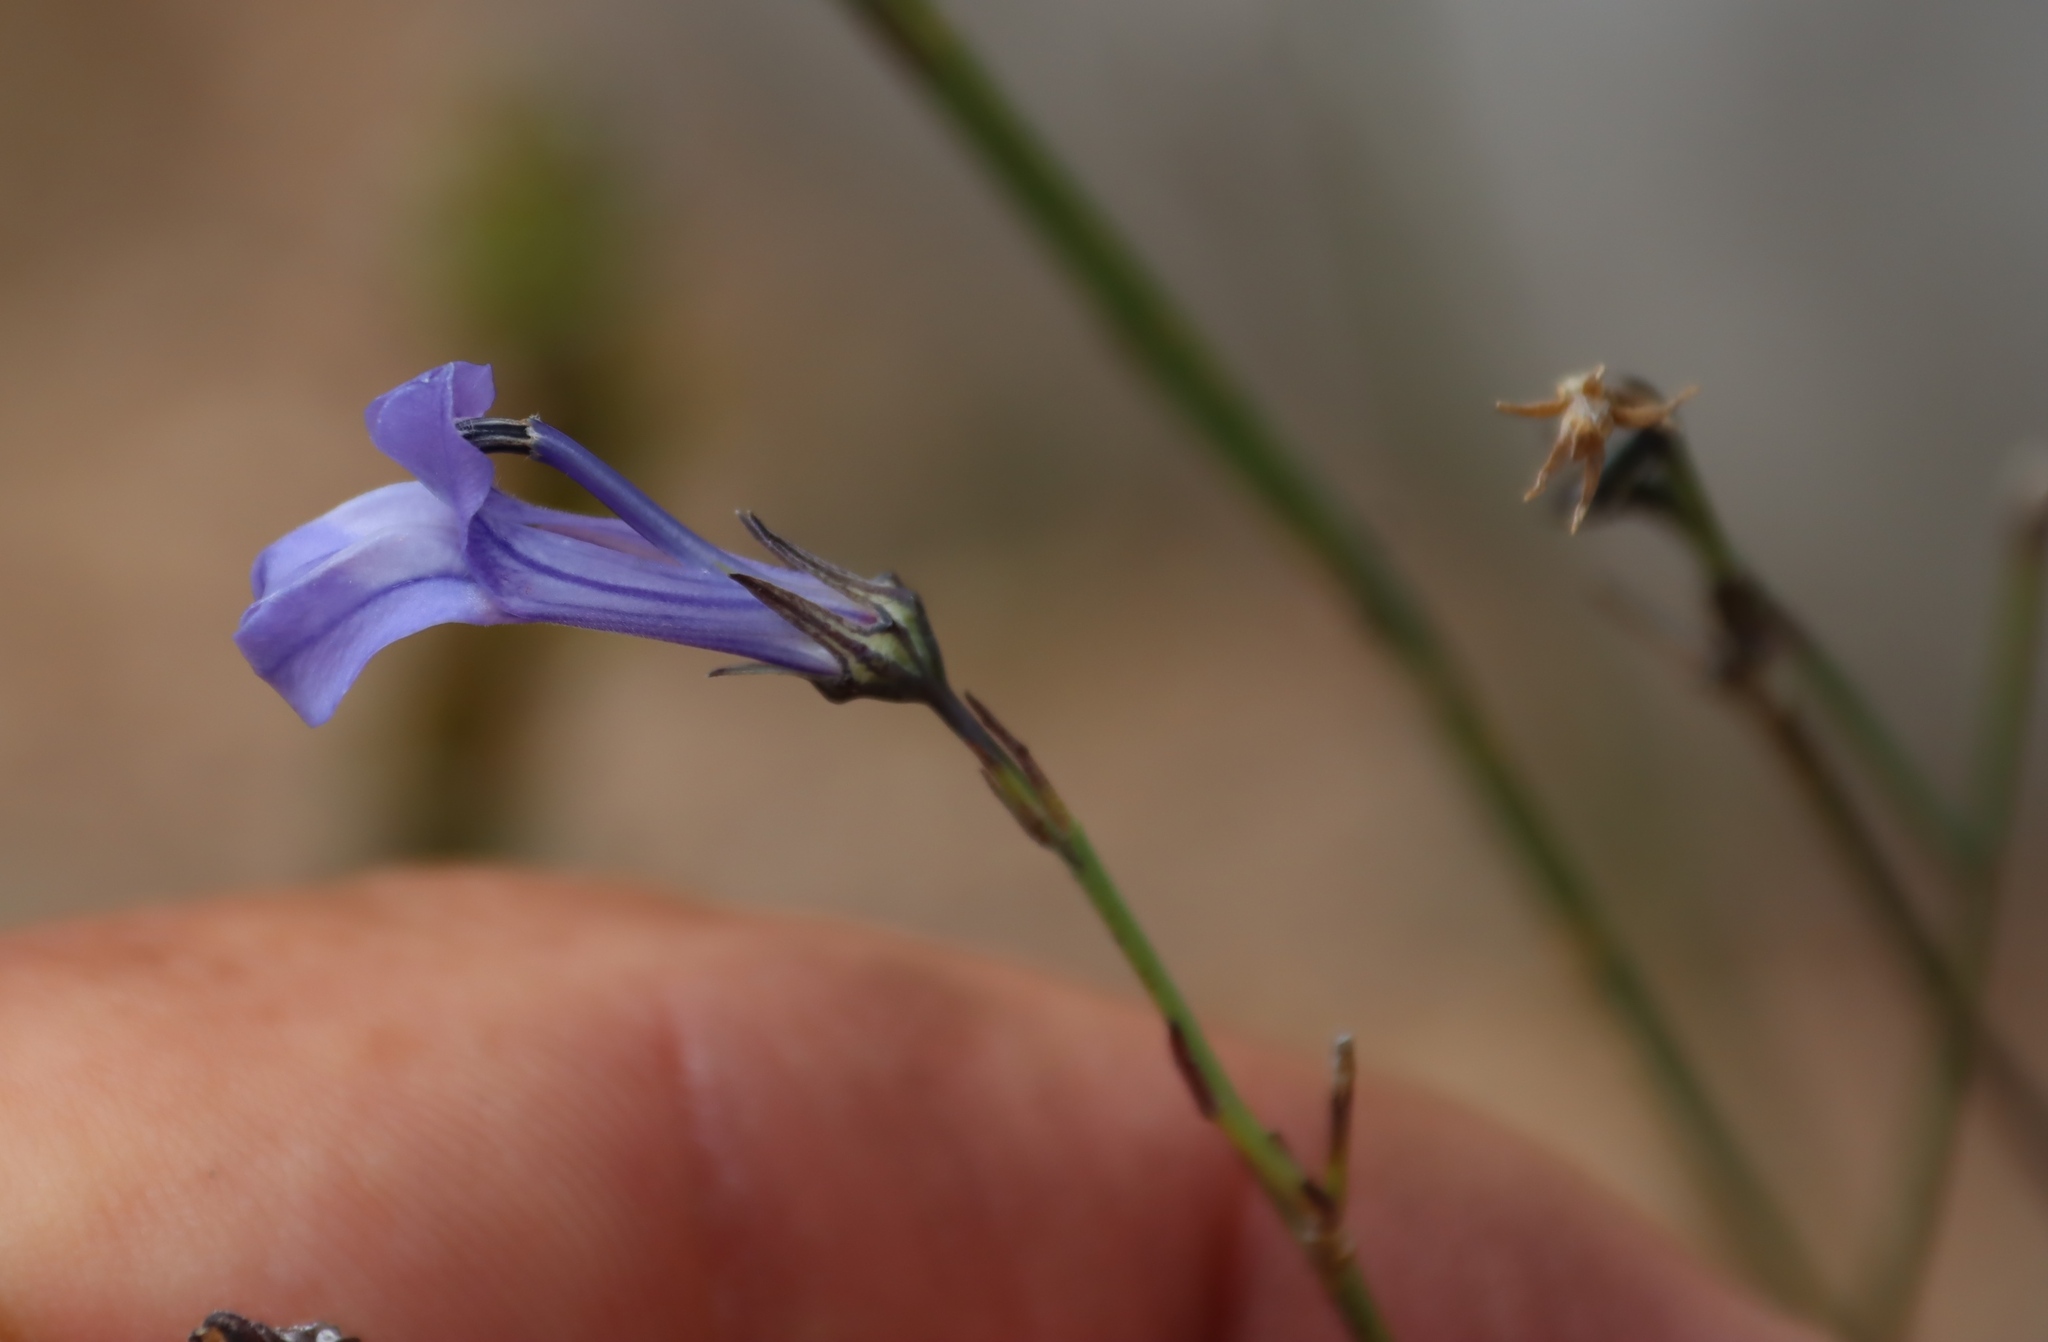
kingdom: Plantae
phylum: Tracheophyta
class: Magnoliopsida
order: Asterales
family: Campanulaceae
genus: Lobelia
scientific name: Lobelia linearis
